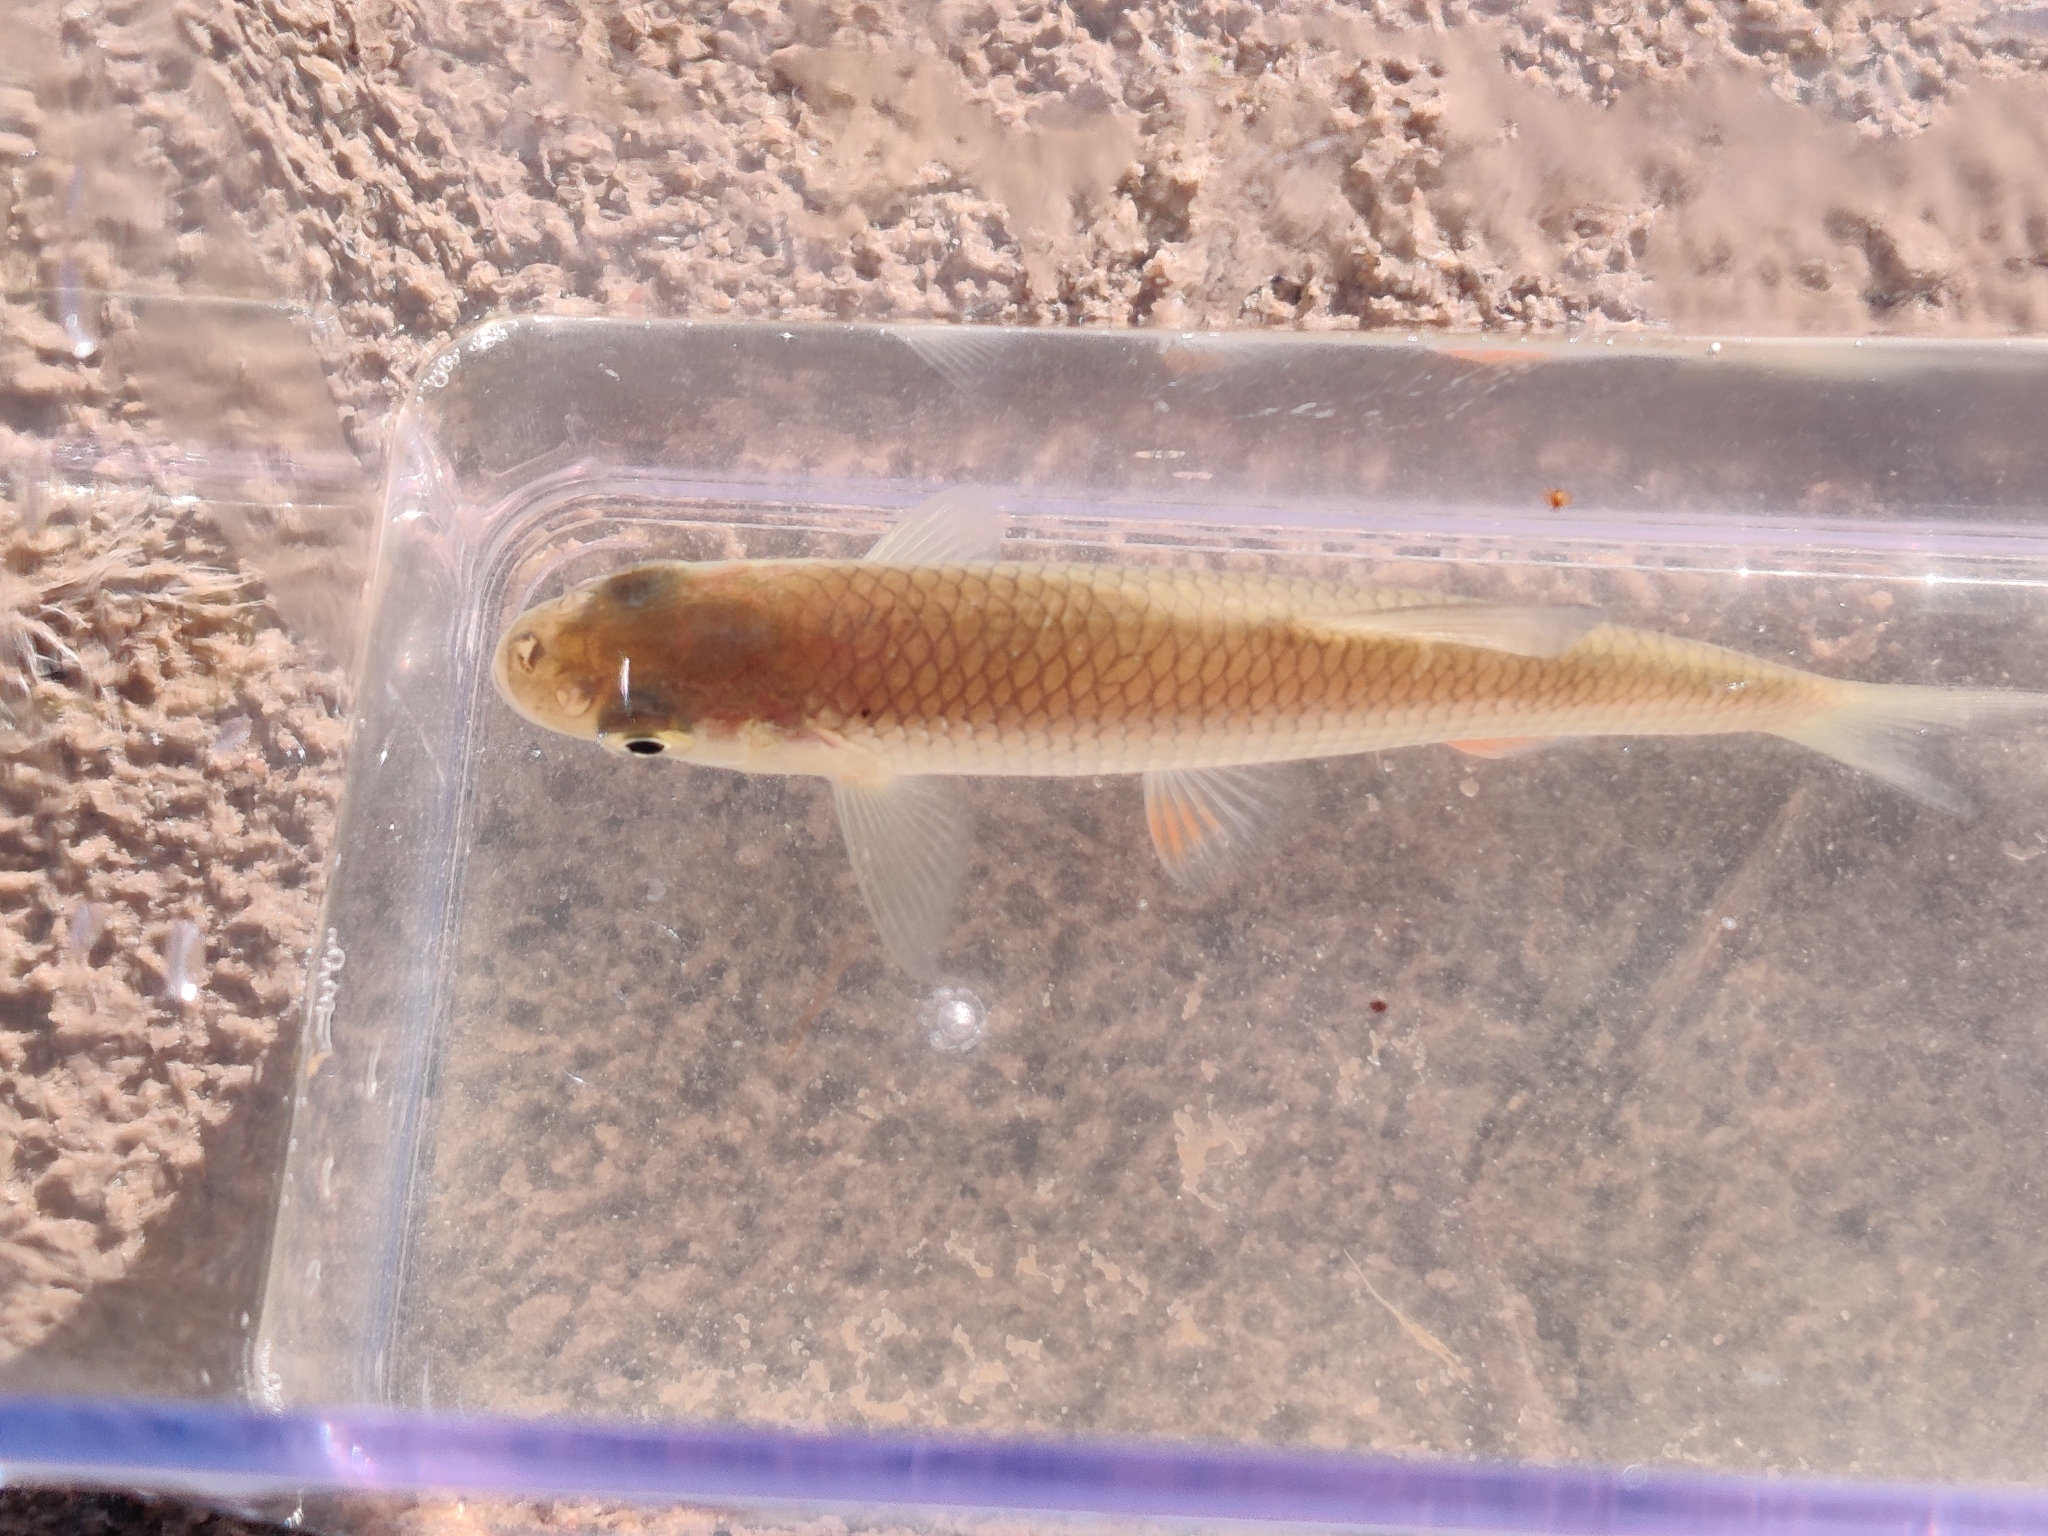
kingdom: Animalia
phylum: Chordata
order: Cypriniformes
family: Cyprinidae
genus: Squalius
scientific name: Squalius cephalus
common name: Chub
